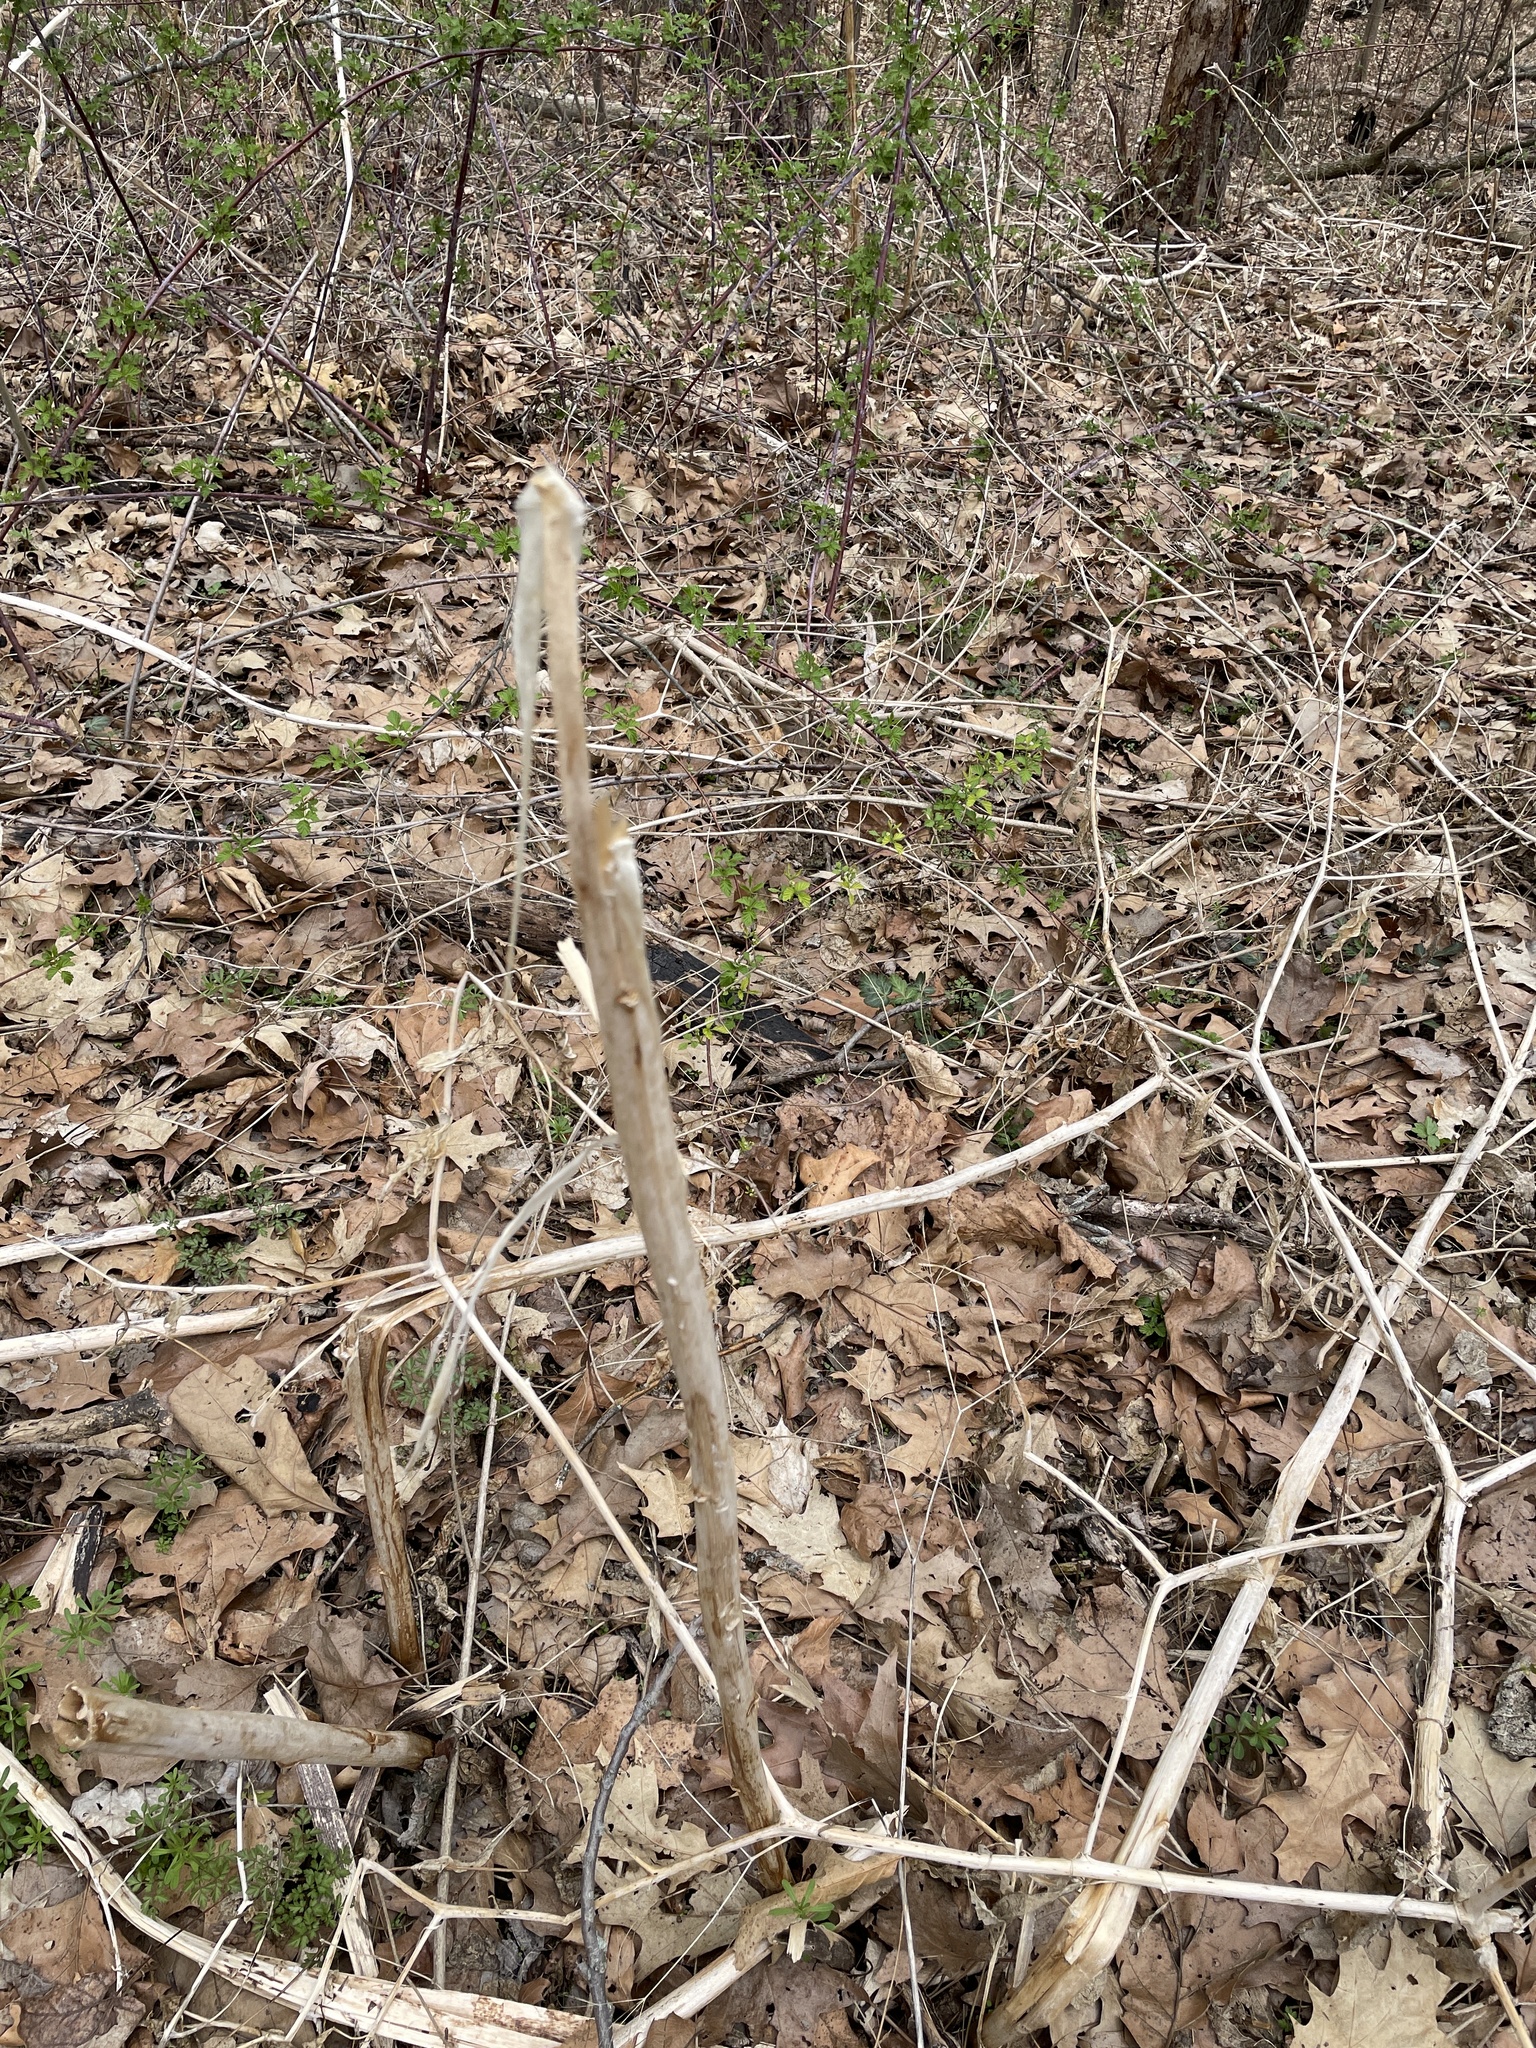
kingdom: Plantae
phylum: Tracheophyta
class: Magnoliopsida
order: Caryophyllales
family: Phytolaccaceae
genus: Phytolacca
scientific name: Phytolacca americana
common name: American pokeweed
